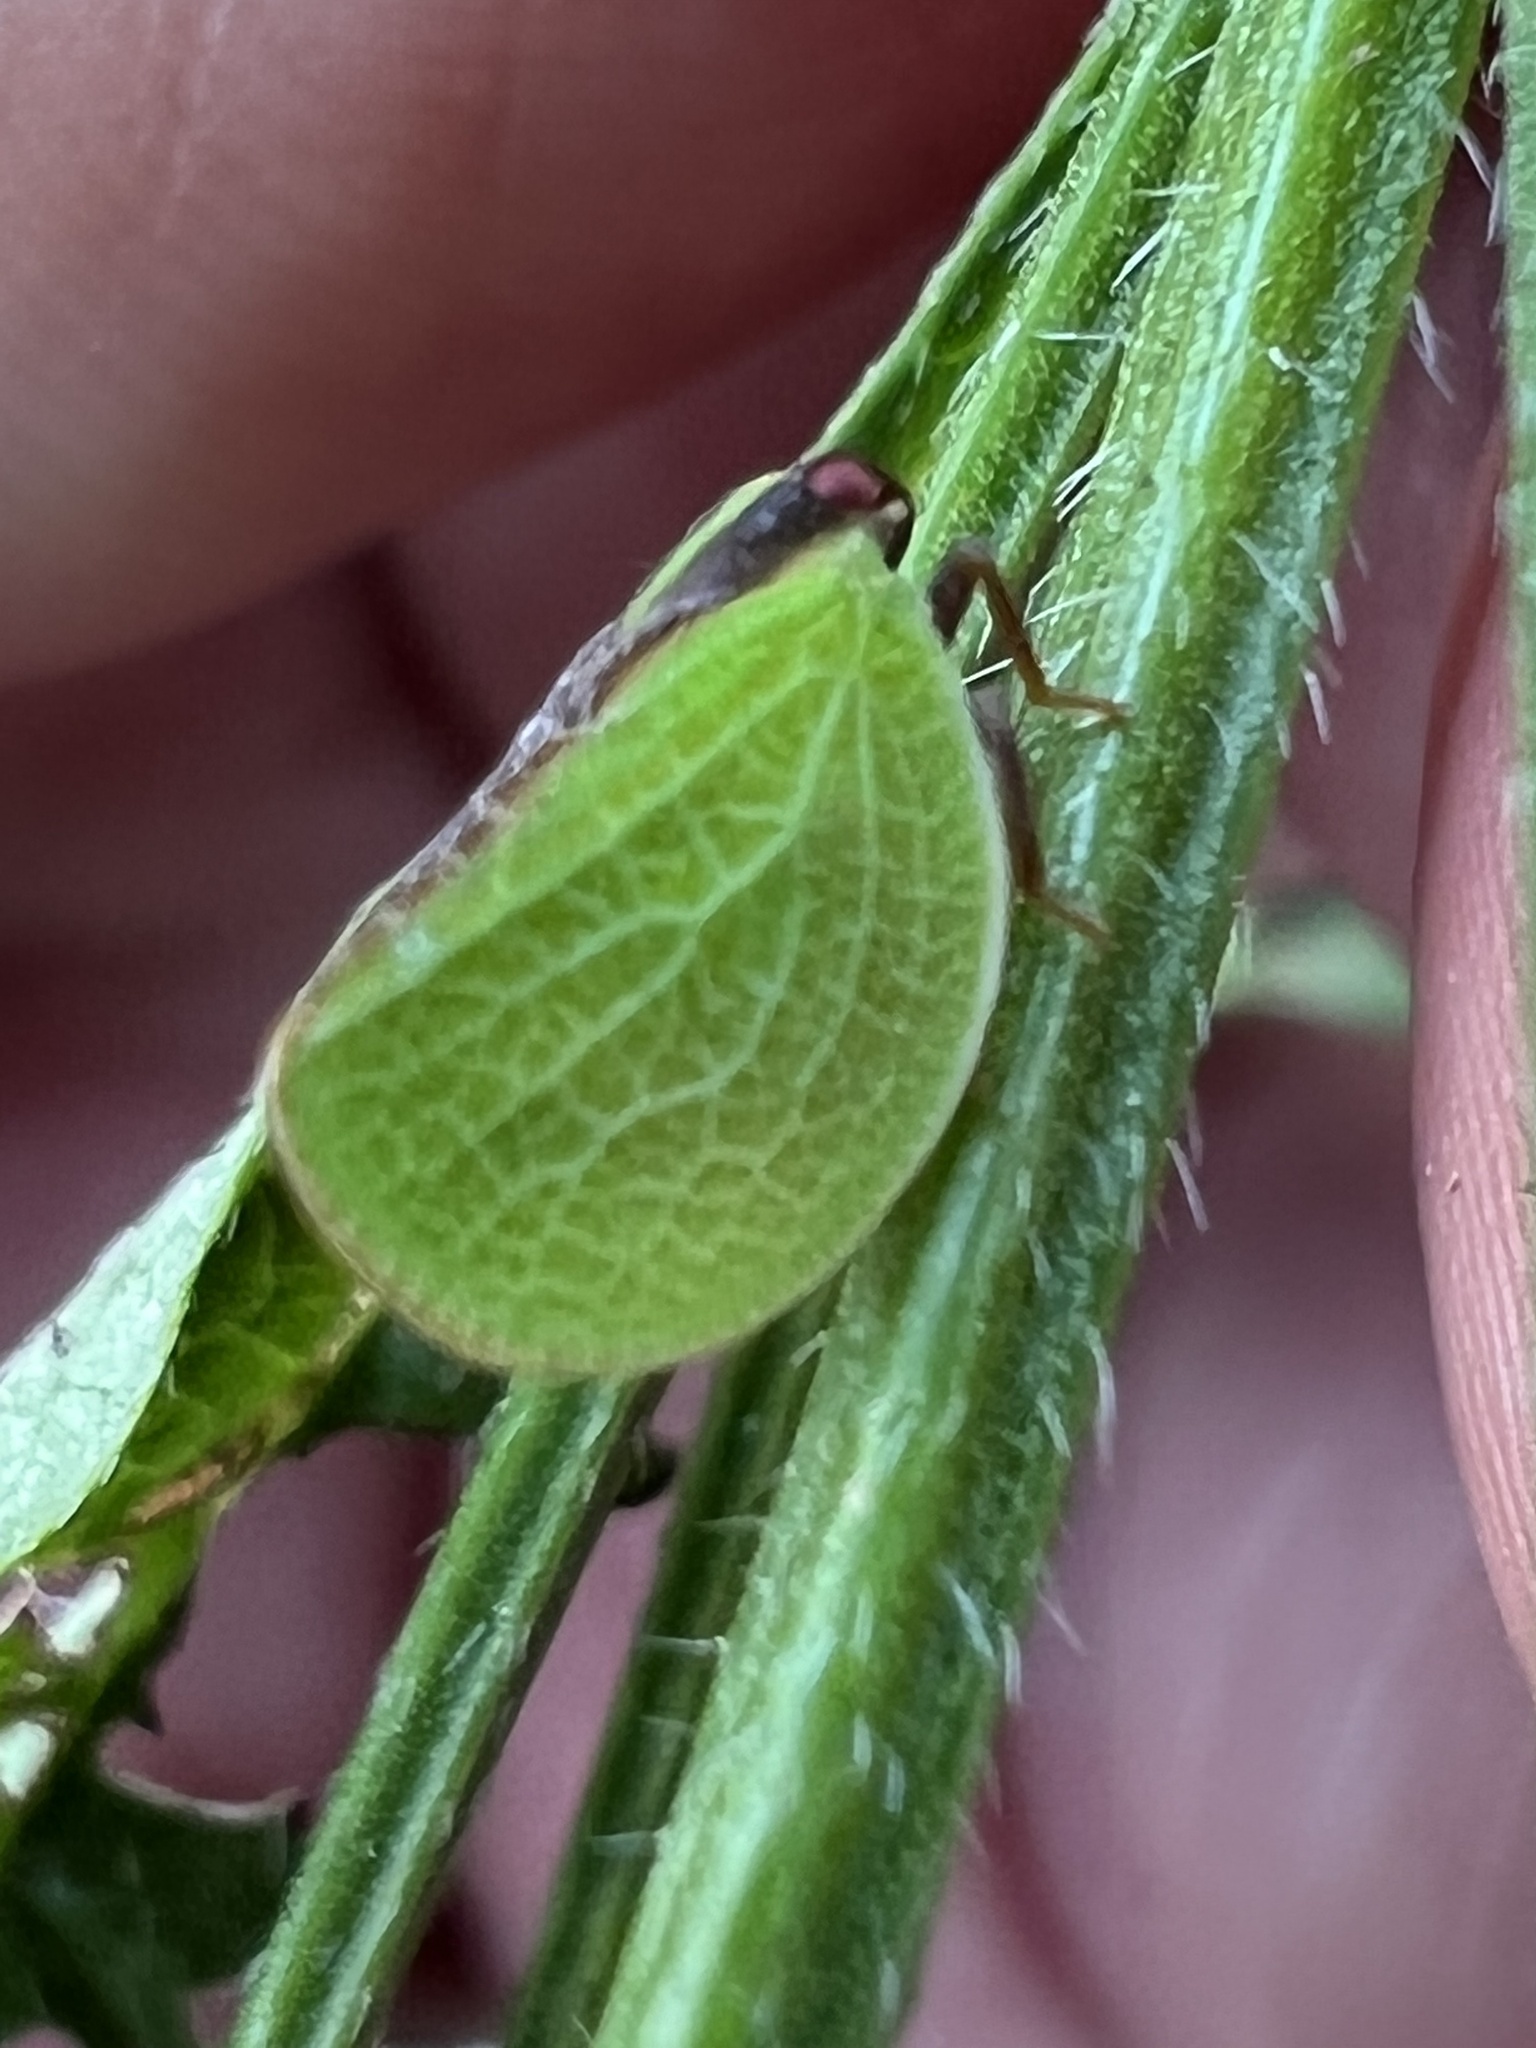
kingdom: Animalia
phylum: Arthropoda
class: Insecta
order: Hemiptera
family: Acanaloniidae
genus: Acanalonia
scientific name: Acanalonia bivittata
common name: Two-striped planthopper
